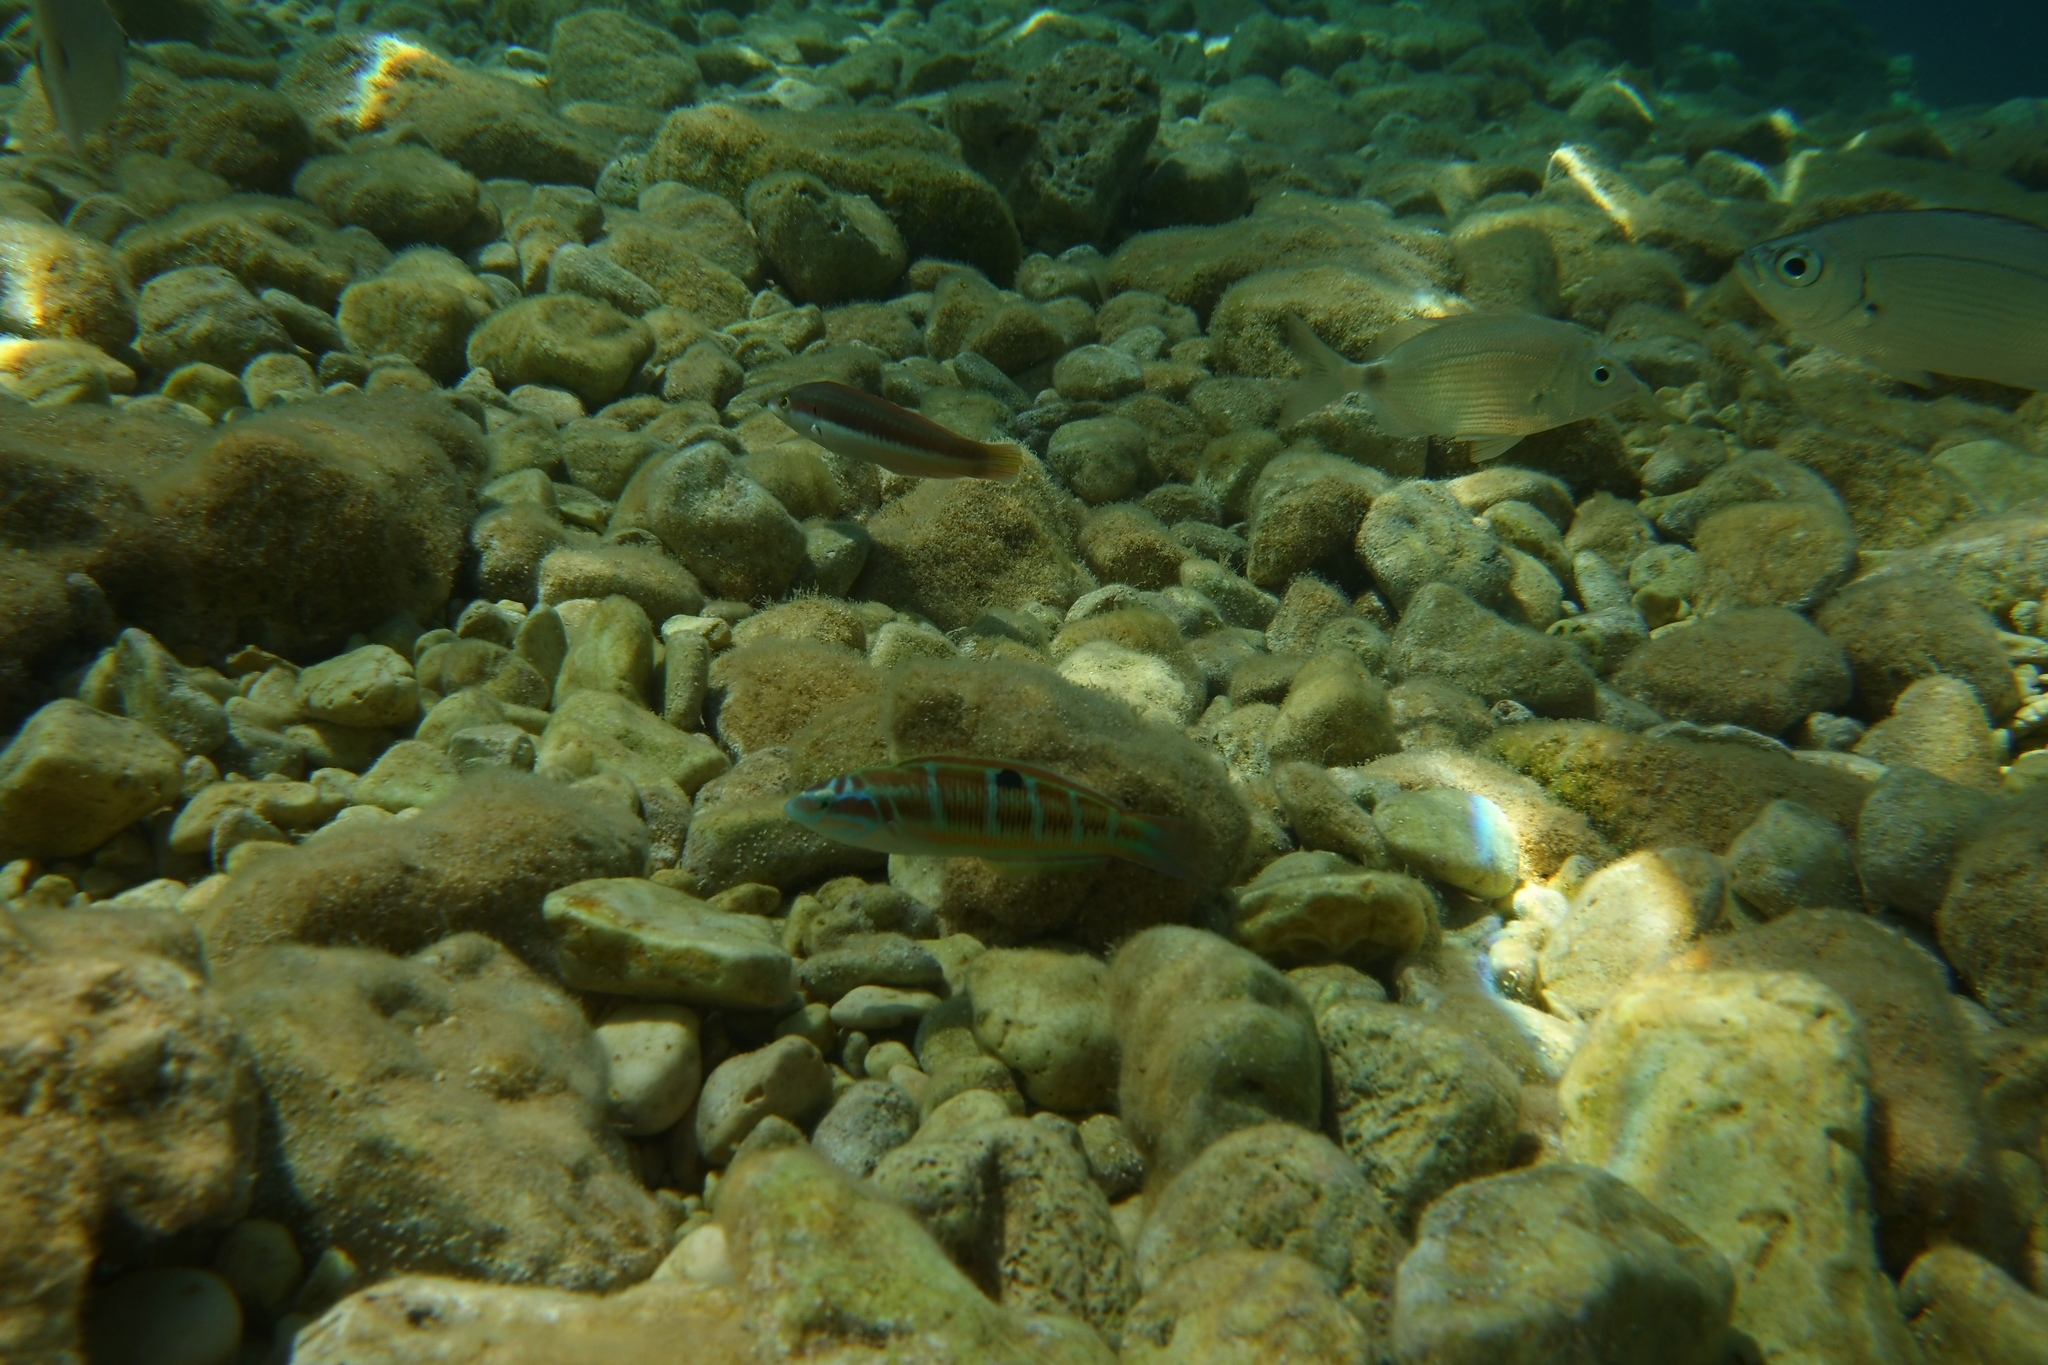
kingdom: Animalia
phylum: Chordata
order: Perciformes
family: Labridae
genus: Thalassoma
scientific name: Thalassoma pavo
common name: Ornate wrasse
